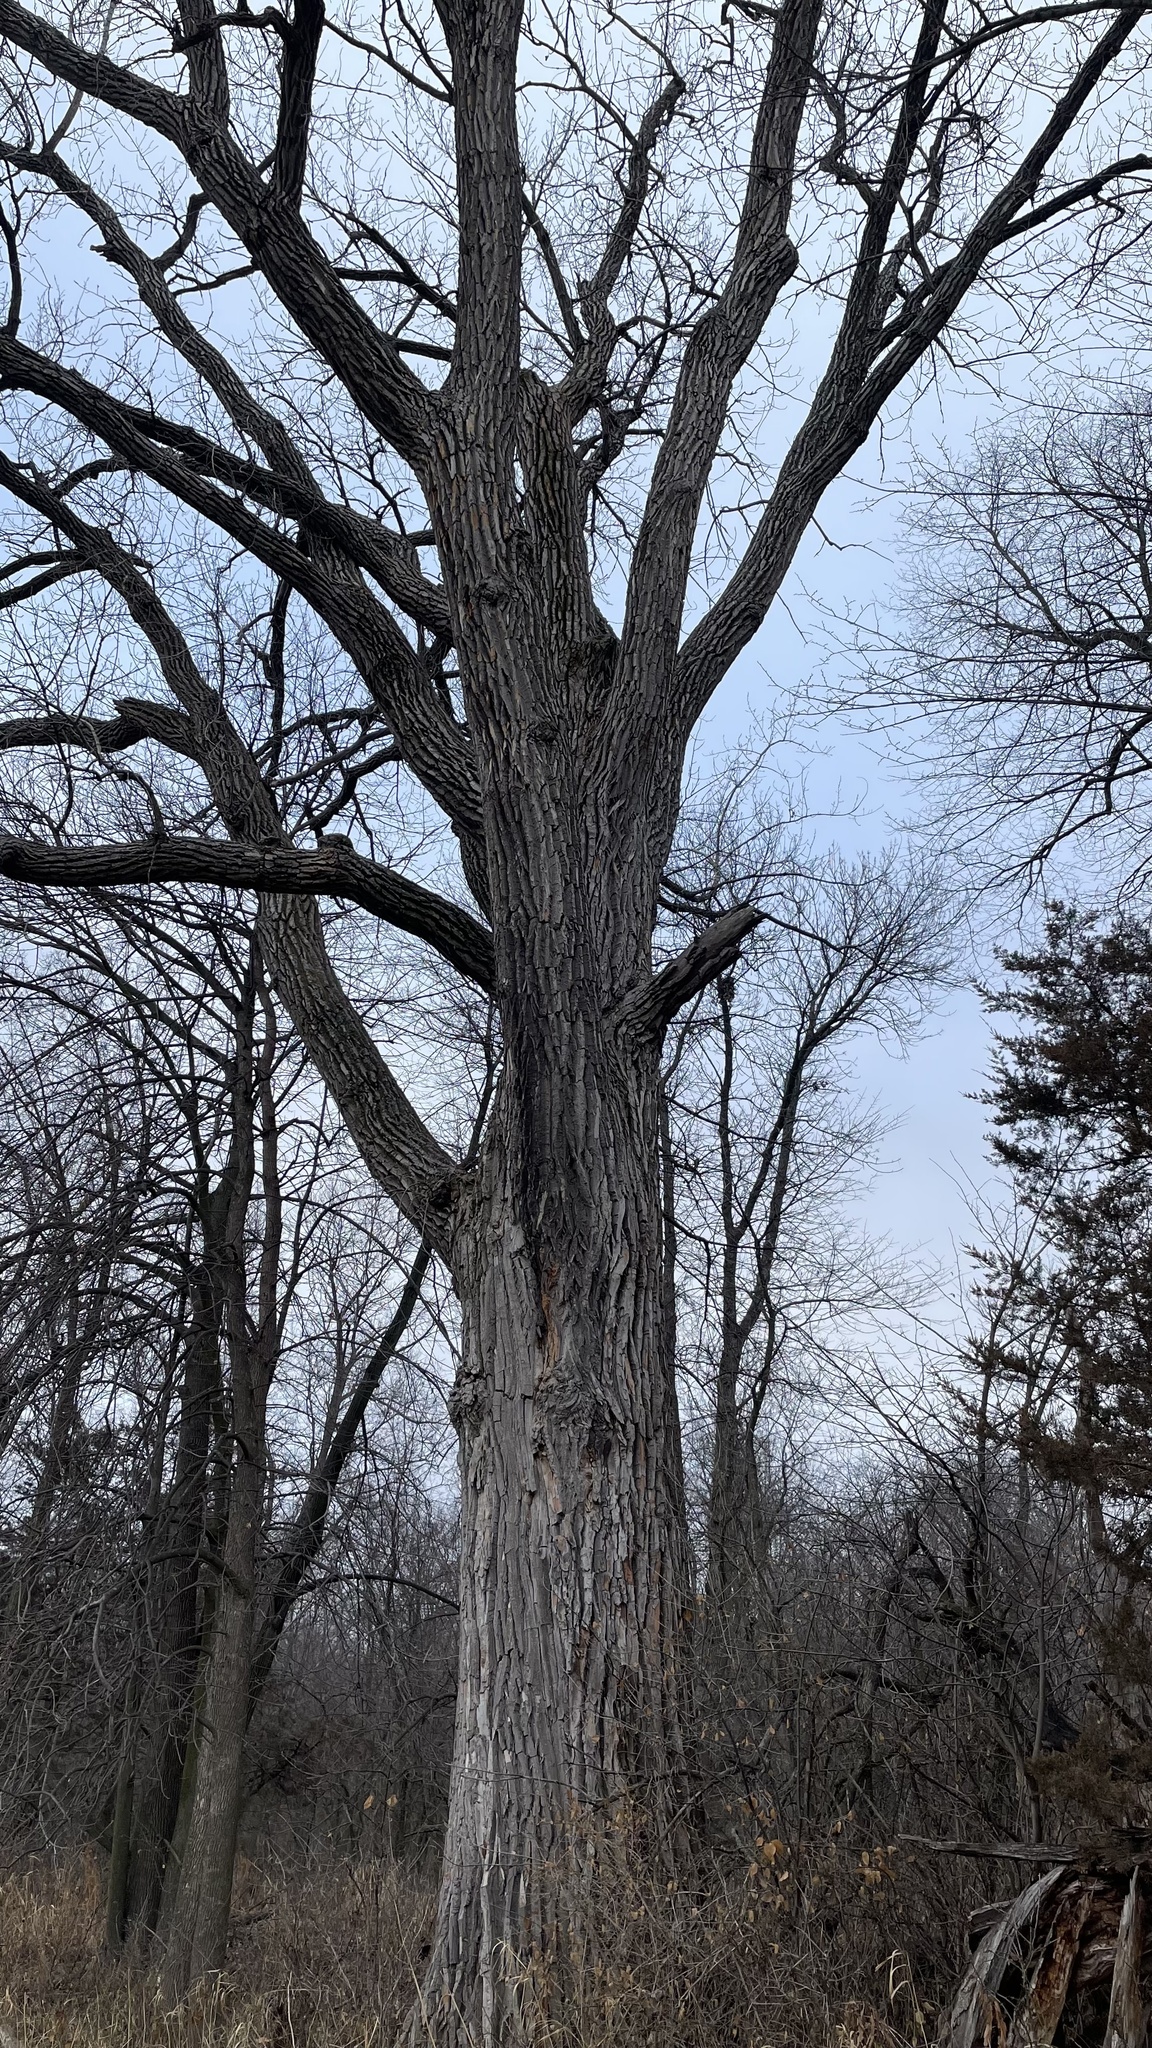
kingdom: Plantae
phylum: Tracheophyta
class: Magnoliopsida
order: Malpighiales
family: Salicaceae
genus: Populus
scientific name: Populus deltoides
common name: Eastern cottonwood
